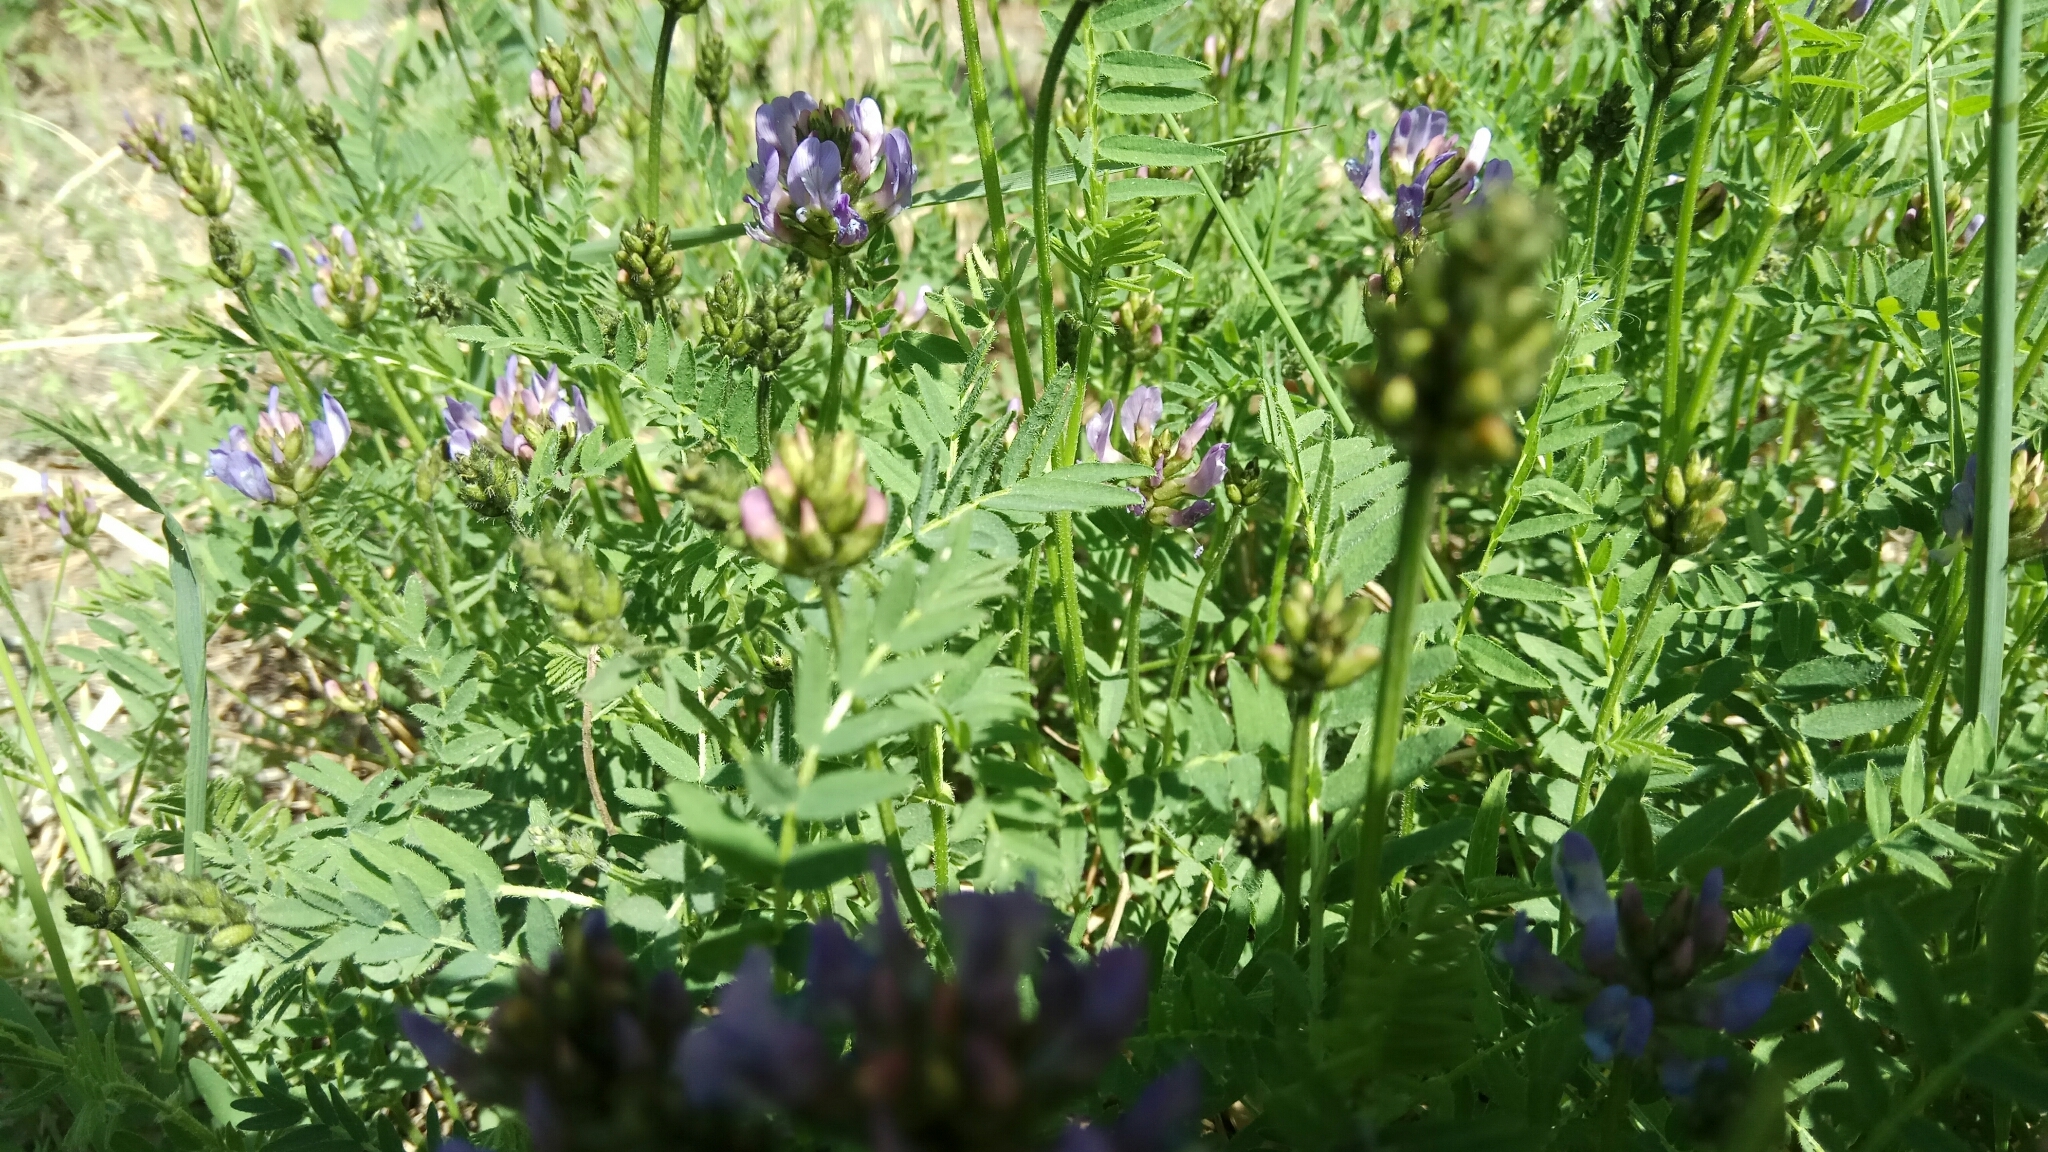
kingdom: Plantae
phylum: Tracheophyta
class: Magnoliopsida
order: Fabales
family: Fabaceae
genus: Astragalus
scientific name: Astragalus danicus
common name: Purple milk-vetch
